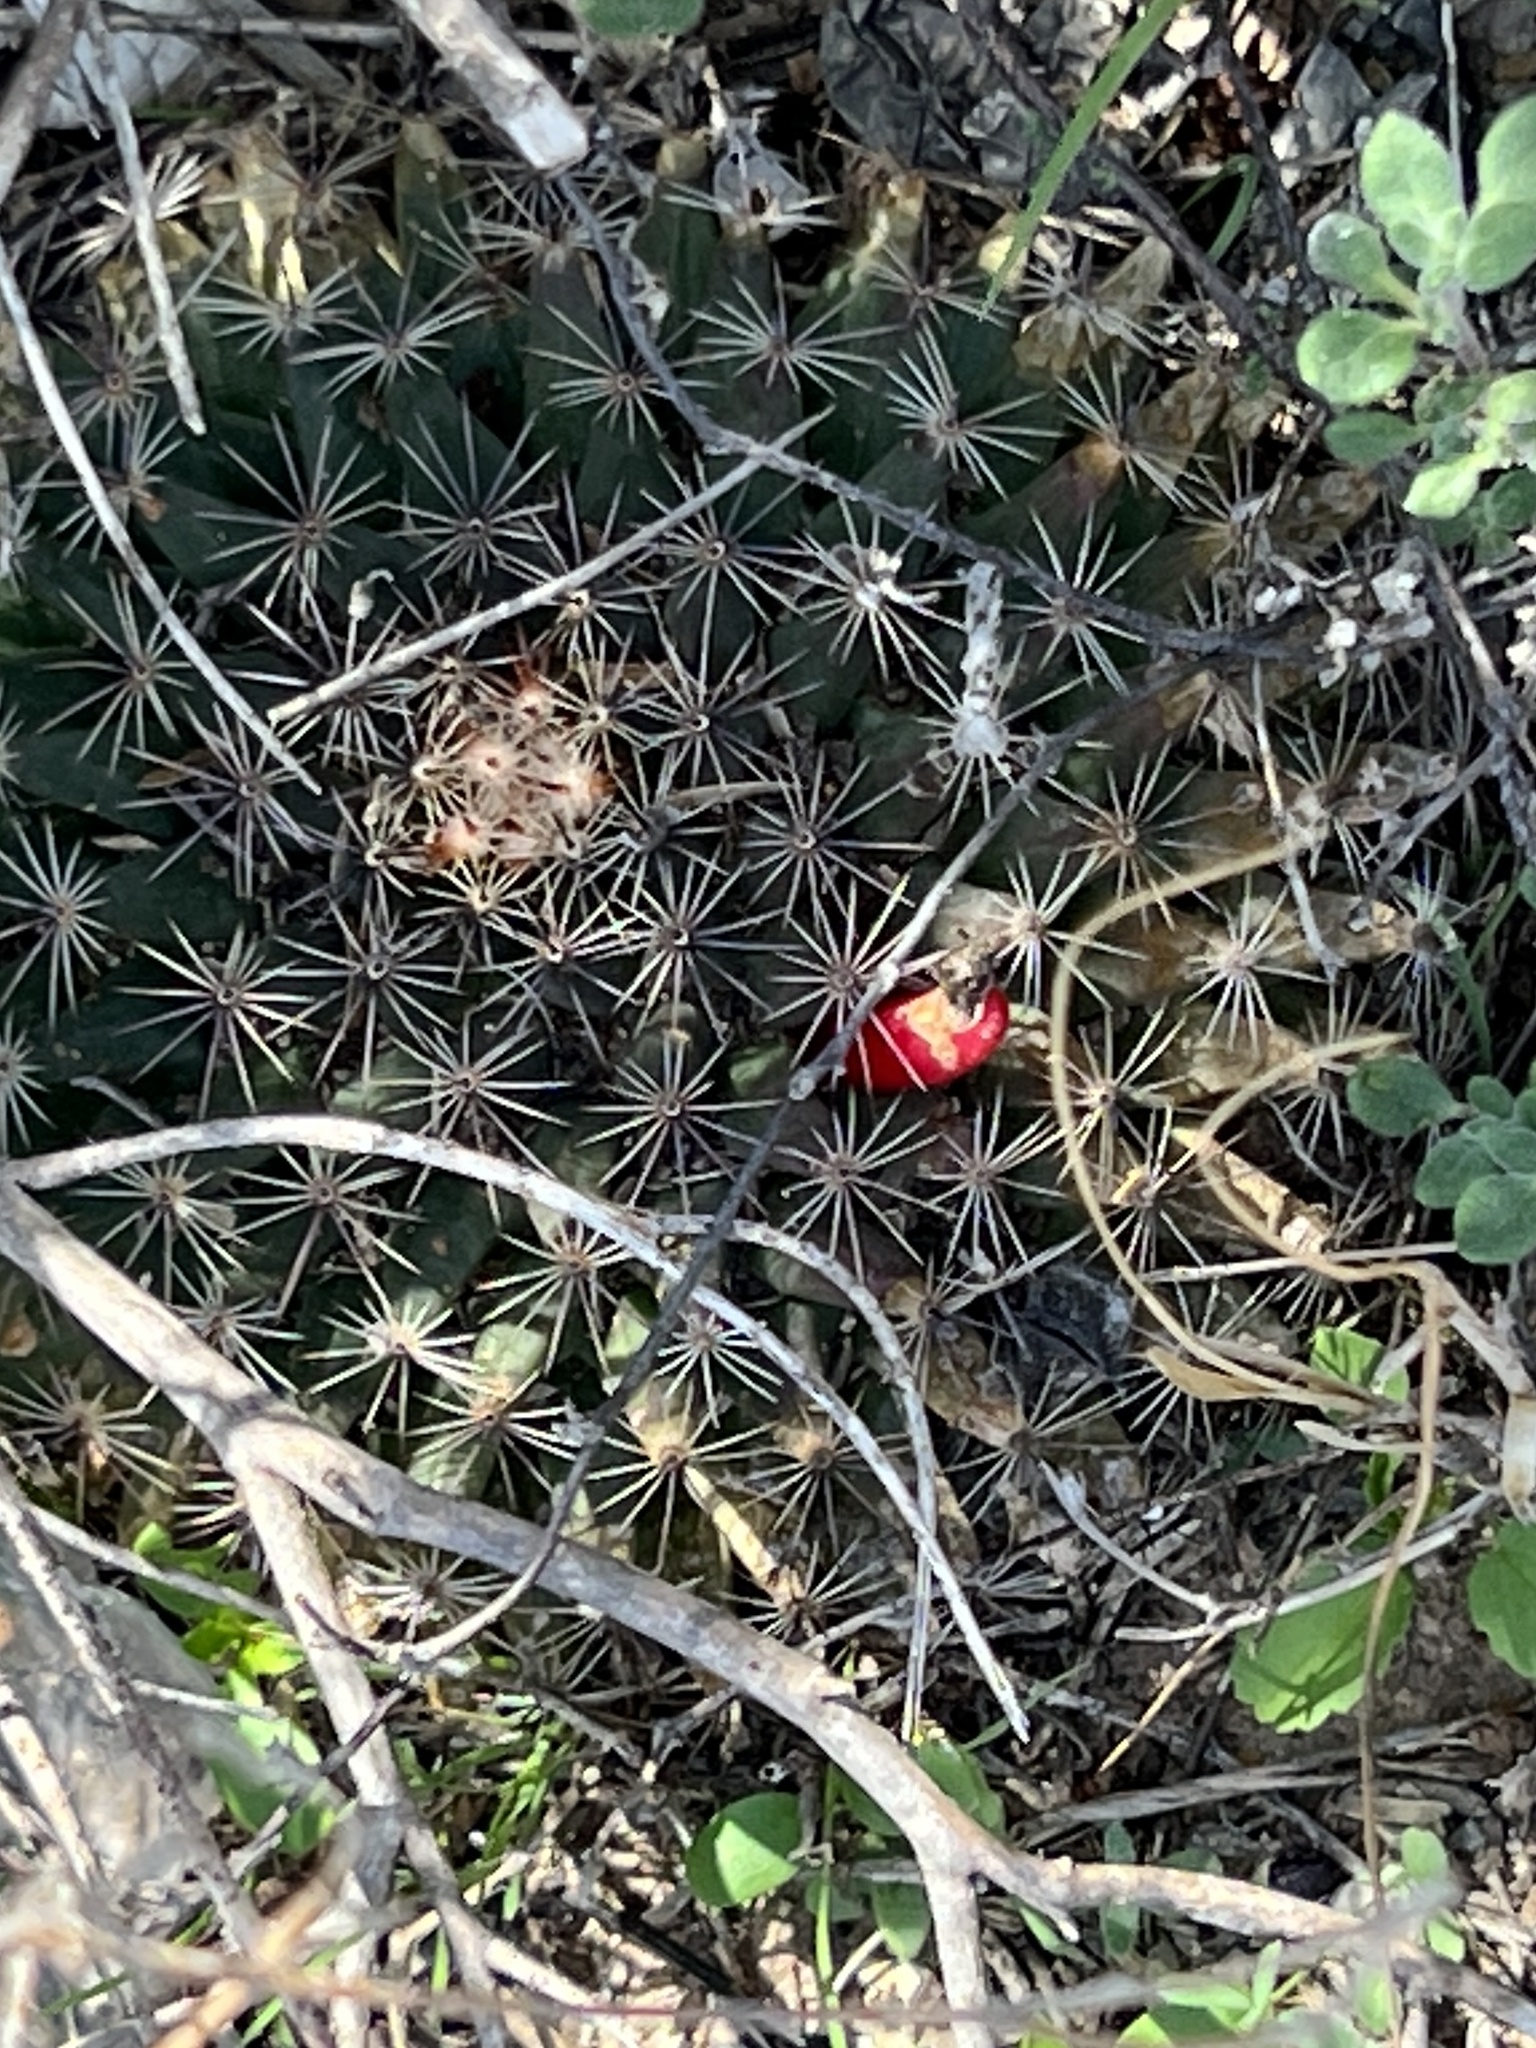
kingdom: Plantae
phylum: Tracheophyta
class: Magnoliopsida
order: Caryophyllales
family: Cactaceae
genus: Mammillaria
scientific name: Mammillaria heyderi
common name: Little nipple cactus
